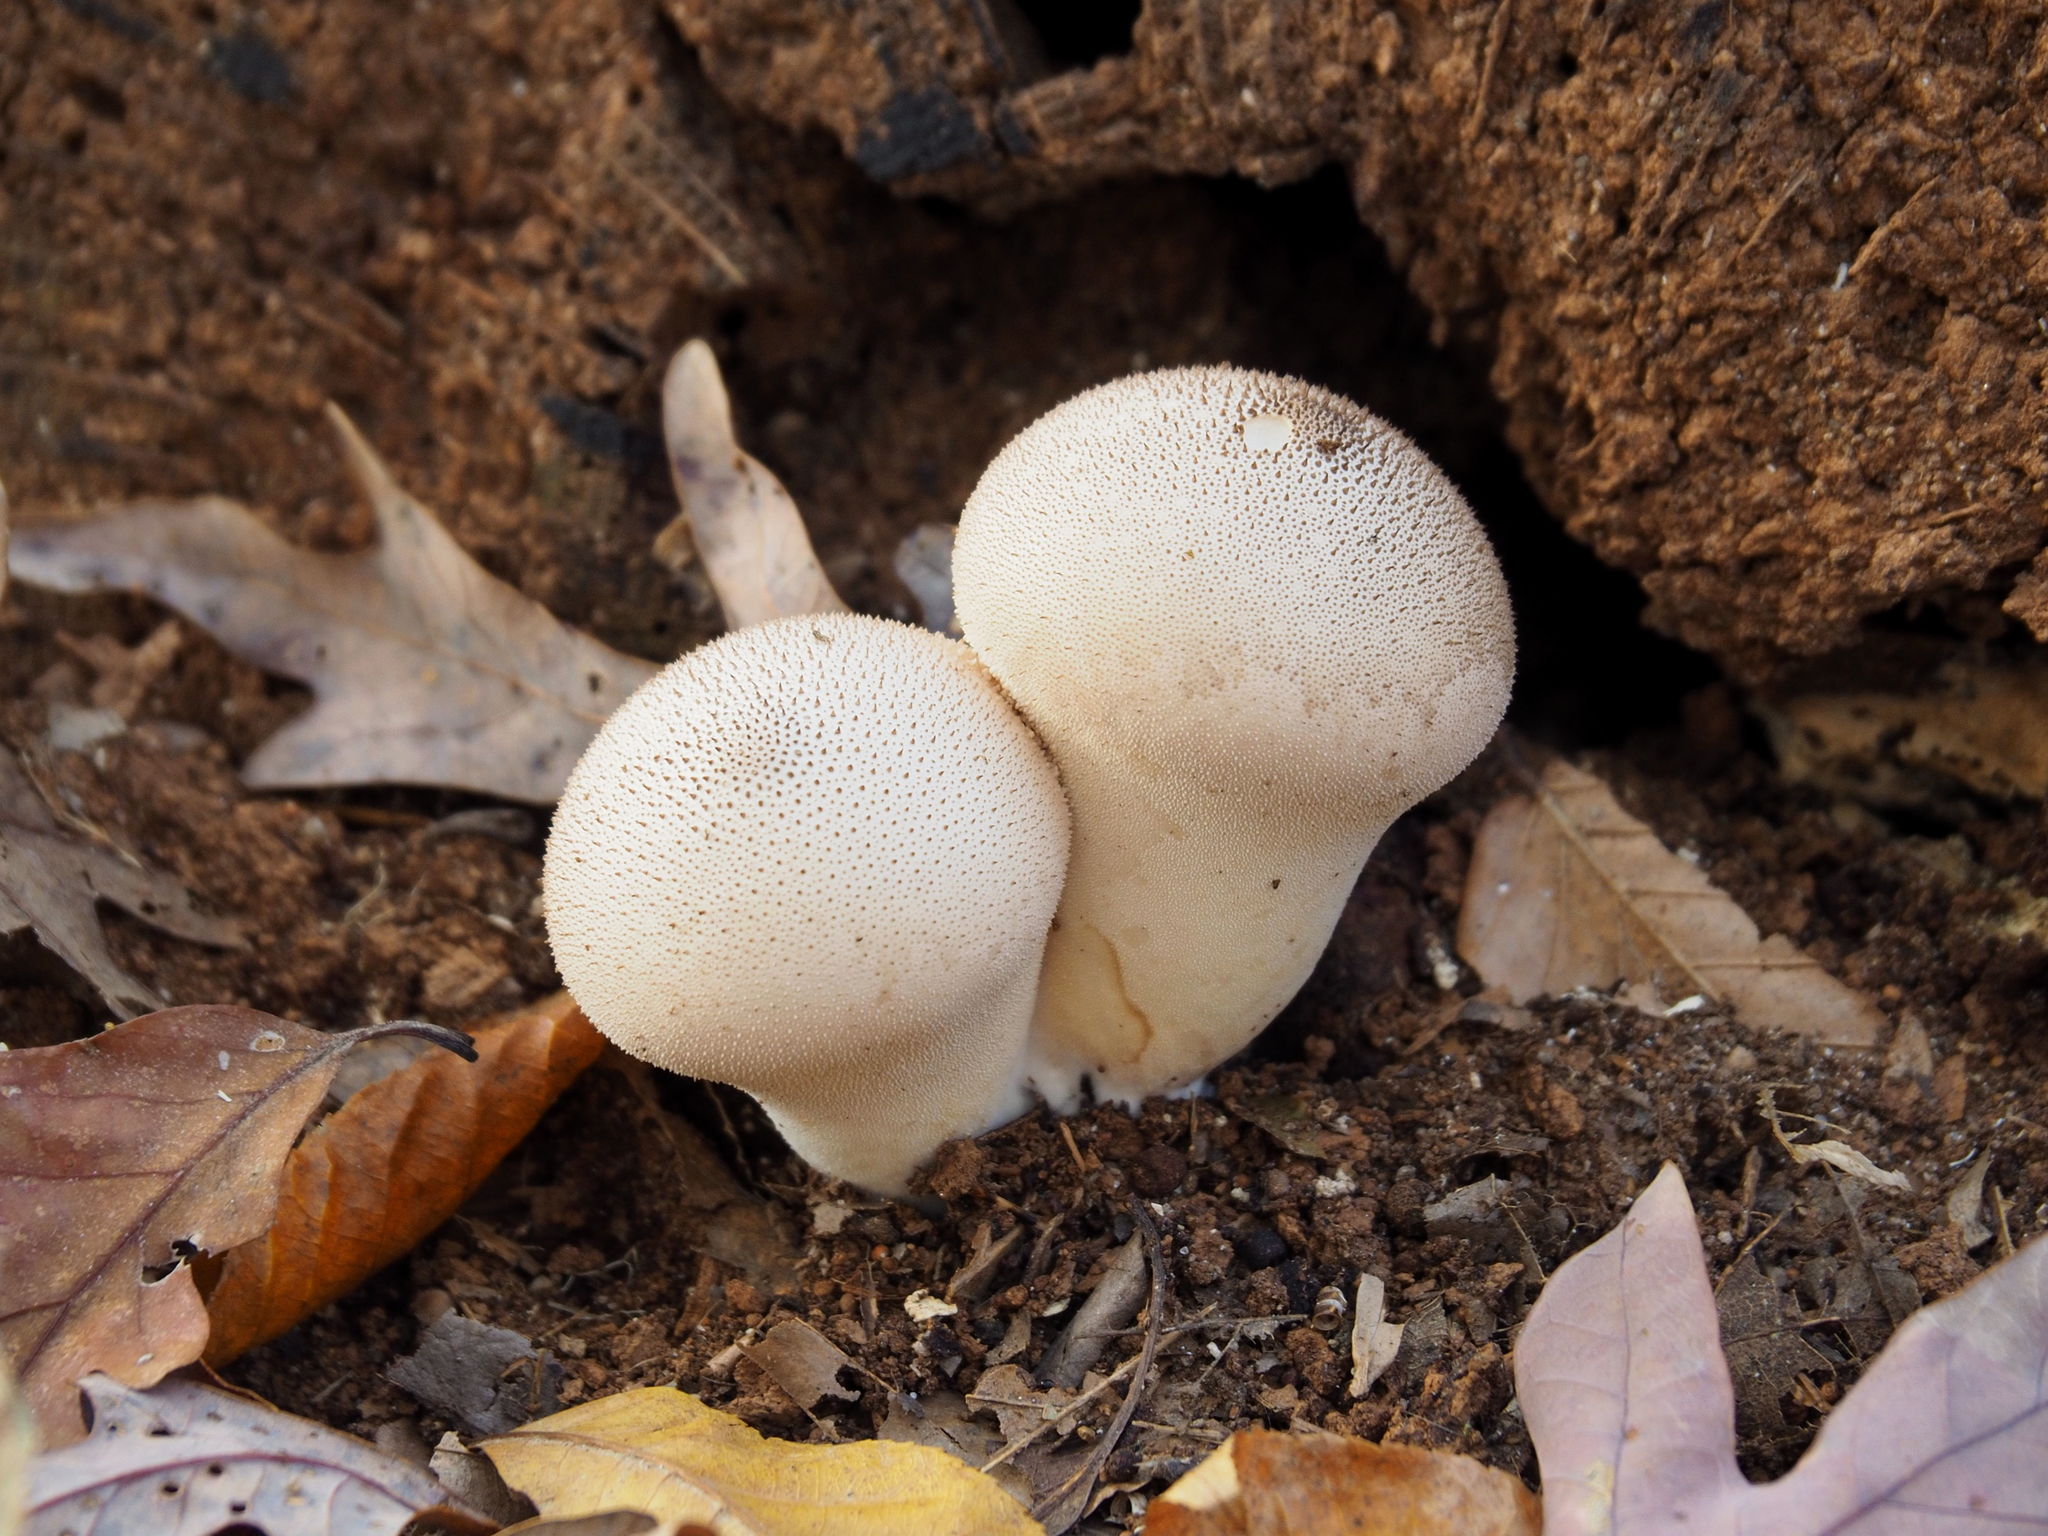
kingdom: Fungi
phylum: Basidiomycota
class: Agaricomycetes
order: Agaricales
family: Lycoperdaceae
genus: Lycoperdon
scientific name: Lycoperdon perlatum
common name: Common puffball
